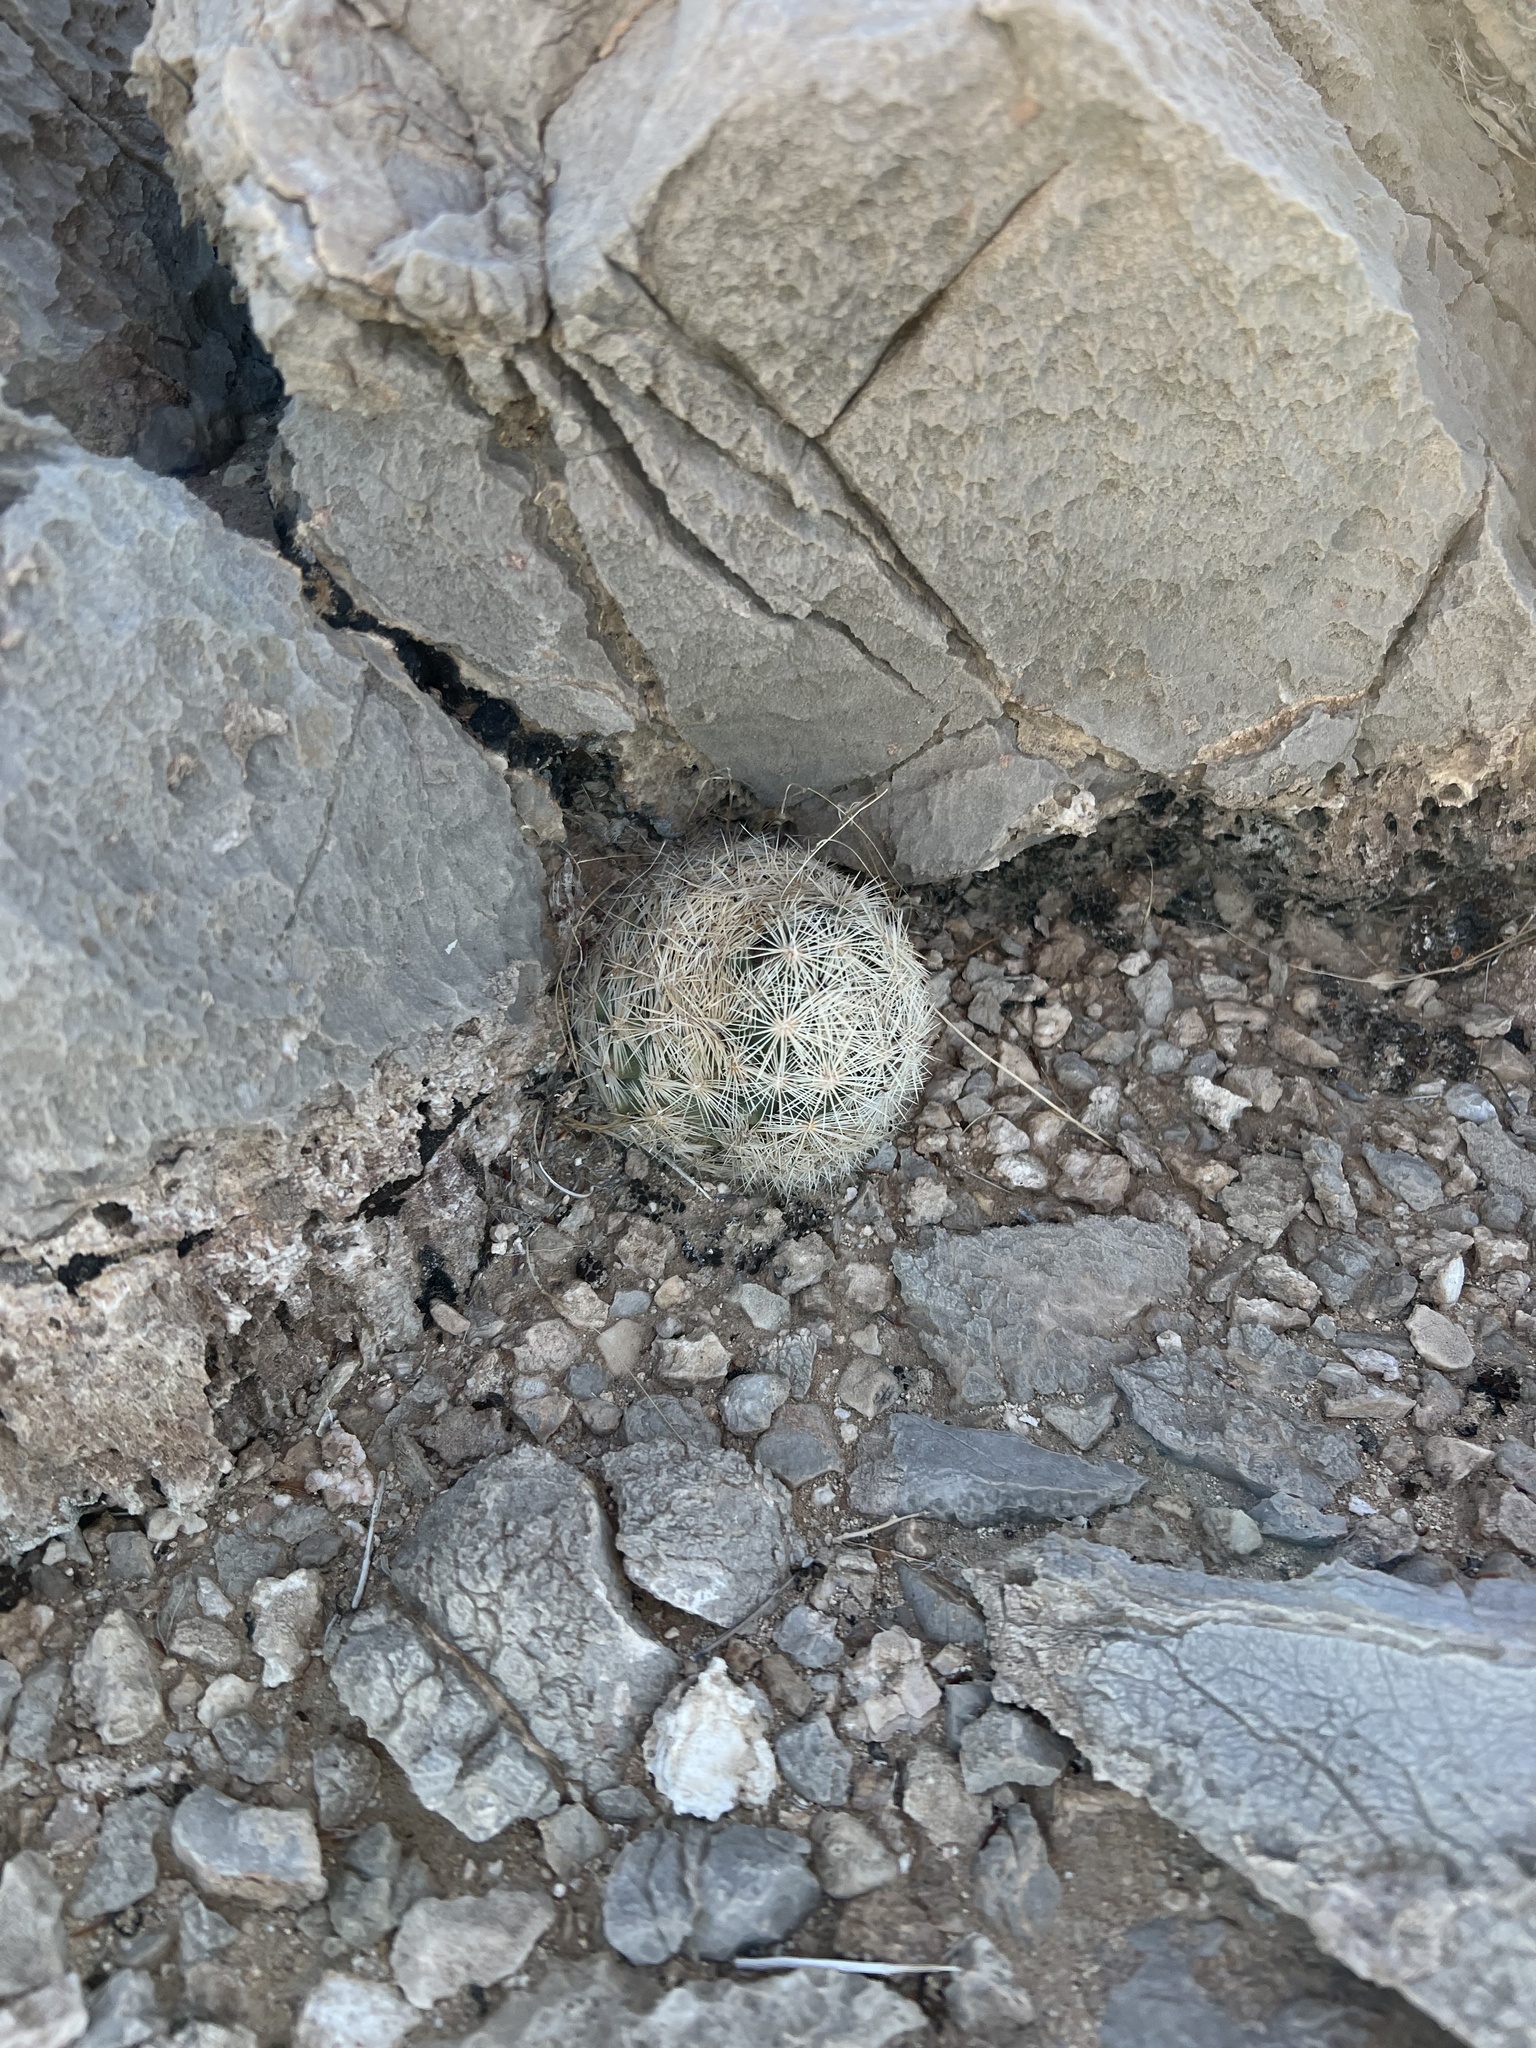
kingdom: Plantae
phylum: Tracheophyta
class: Magnoliopsida
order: Caryophyllales
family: Cactaceae
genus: Pelecyphora
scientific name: Pelecyphora dasyacantha
